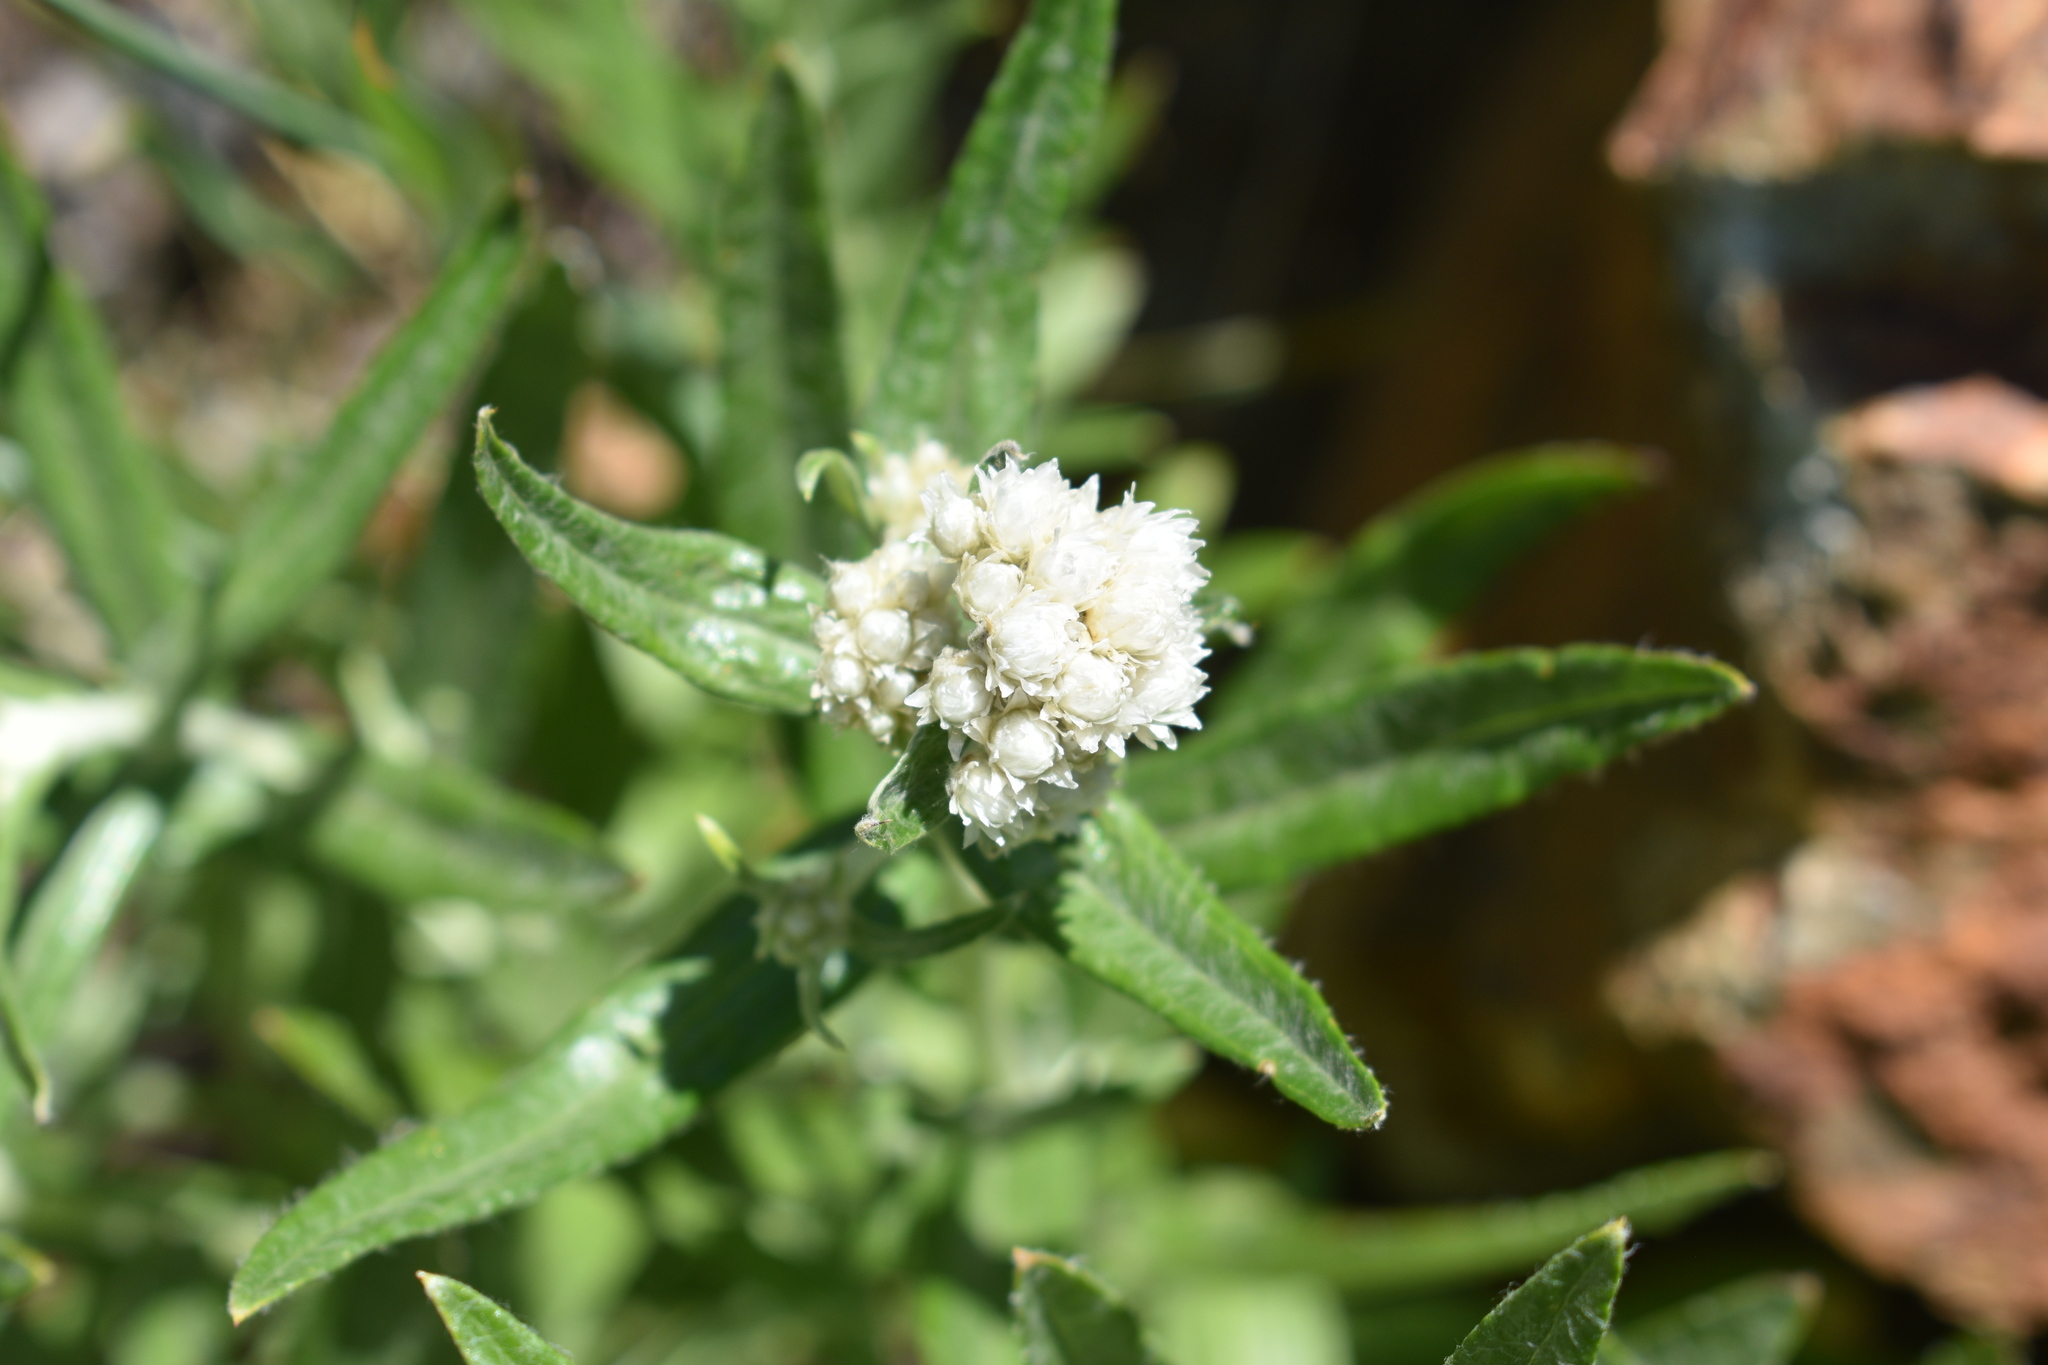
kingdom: Plantae
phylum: Tracheophyta
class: Magnoliopsida
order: Asterales
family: Asteraceae
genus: Anaphalis
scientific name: Anaphalis margaritacea
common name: Pearly everlasting
